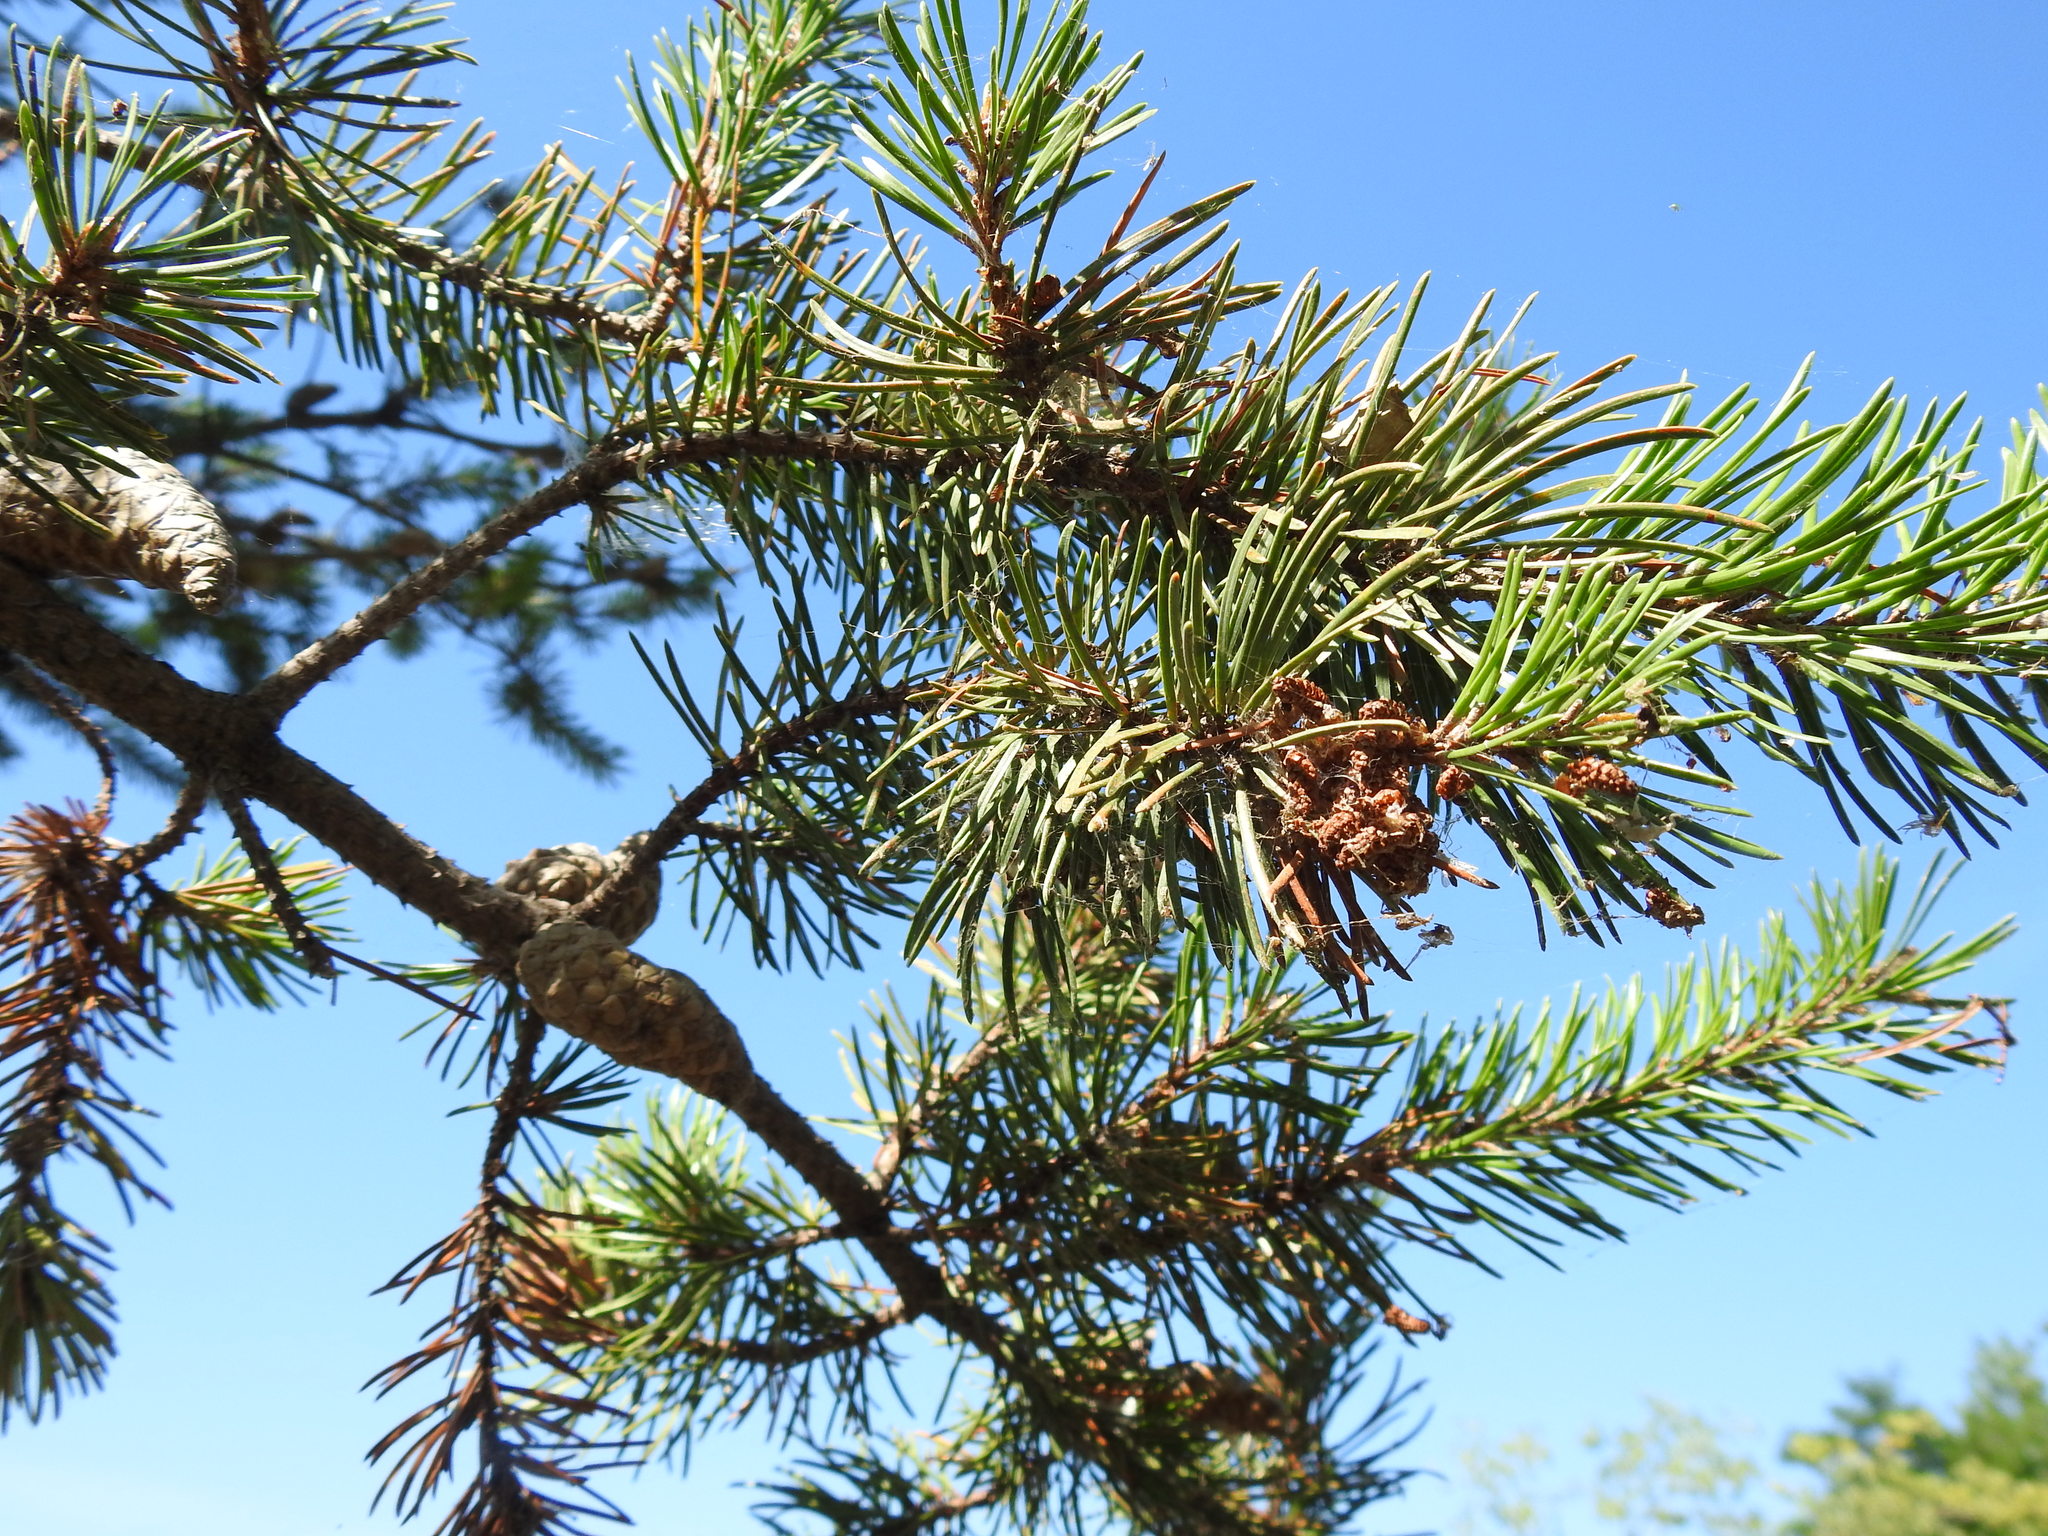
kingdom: Plantae
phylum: Tracheophyta
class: Pinopsida
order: Pinales
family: Pinaceae
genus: Pinus
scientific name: Pinus banksiana
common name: Jack pine
